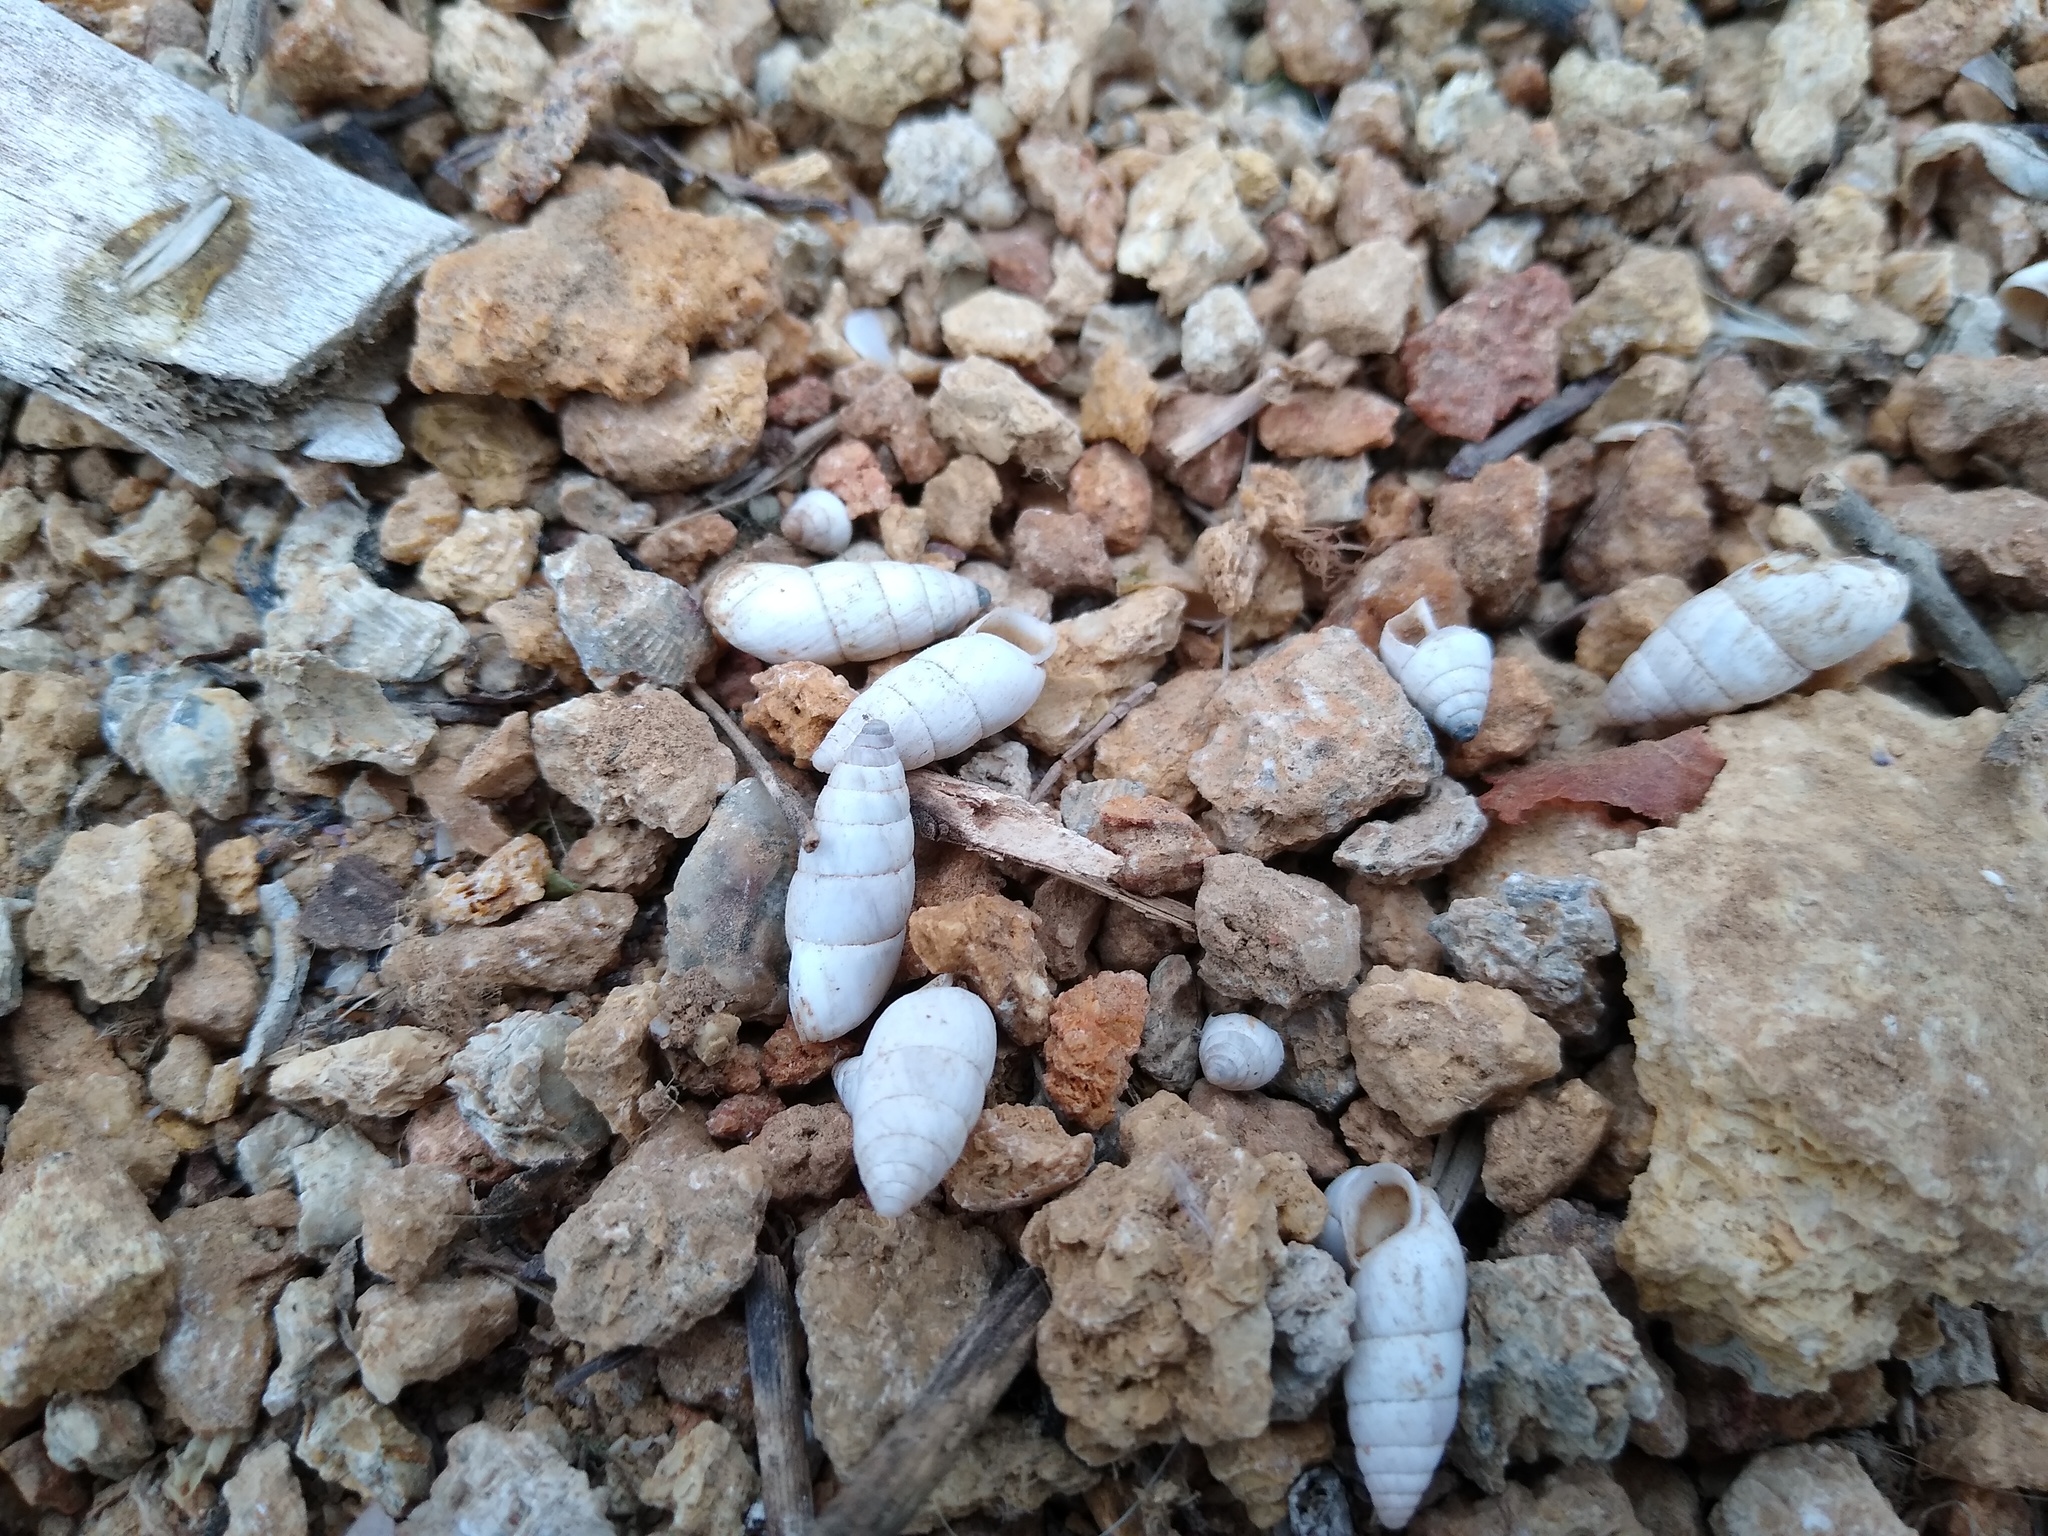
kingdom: Animalia
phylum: Mollusca
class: Gastropoda
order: Stylommatophora
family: Enidae
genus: Brephulopsis
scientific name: Brephulopsis cylindrica
